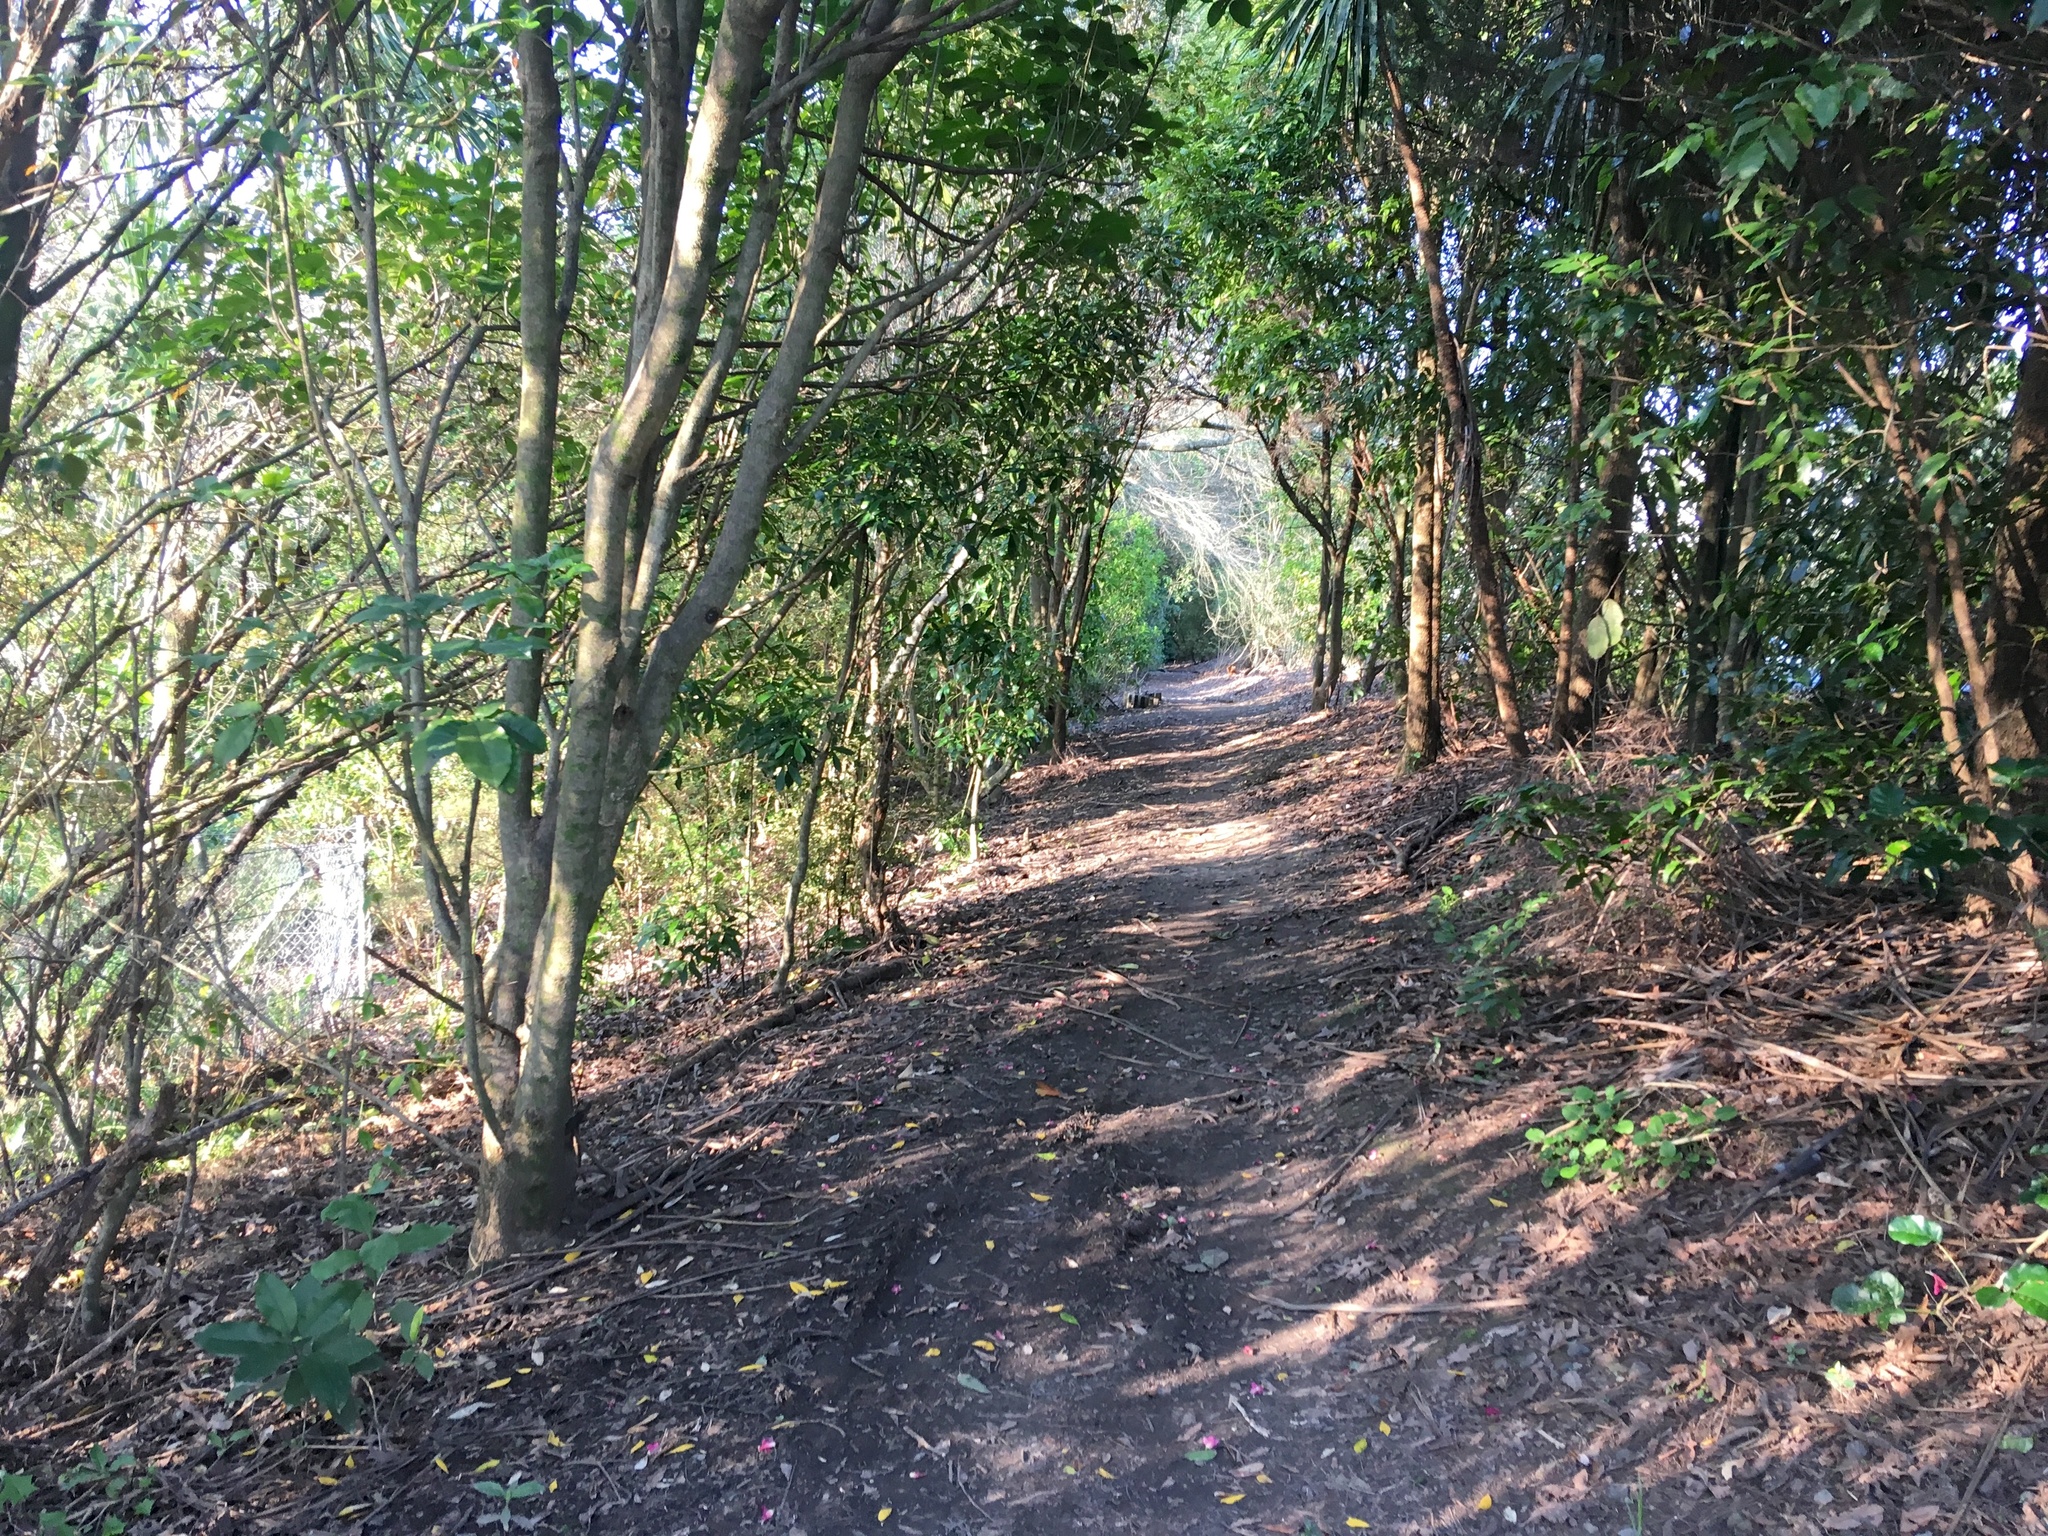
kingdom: Plantae
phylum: Tracheophyta
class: Liliopsida
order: Asparagales
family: Asparagaceae
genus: Cordyline
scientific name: Cordyline australis
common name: Cabbage-palm
